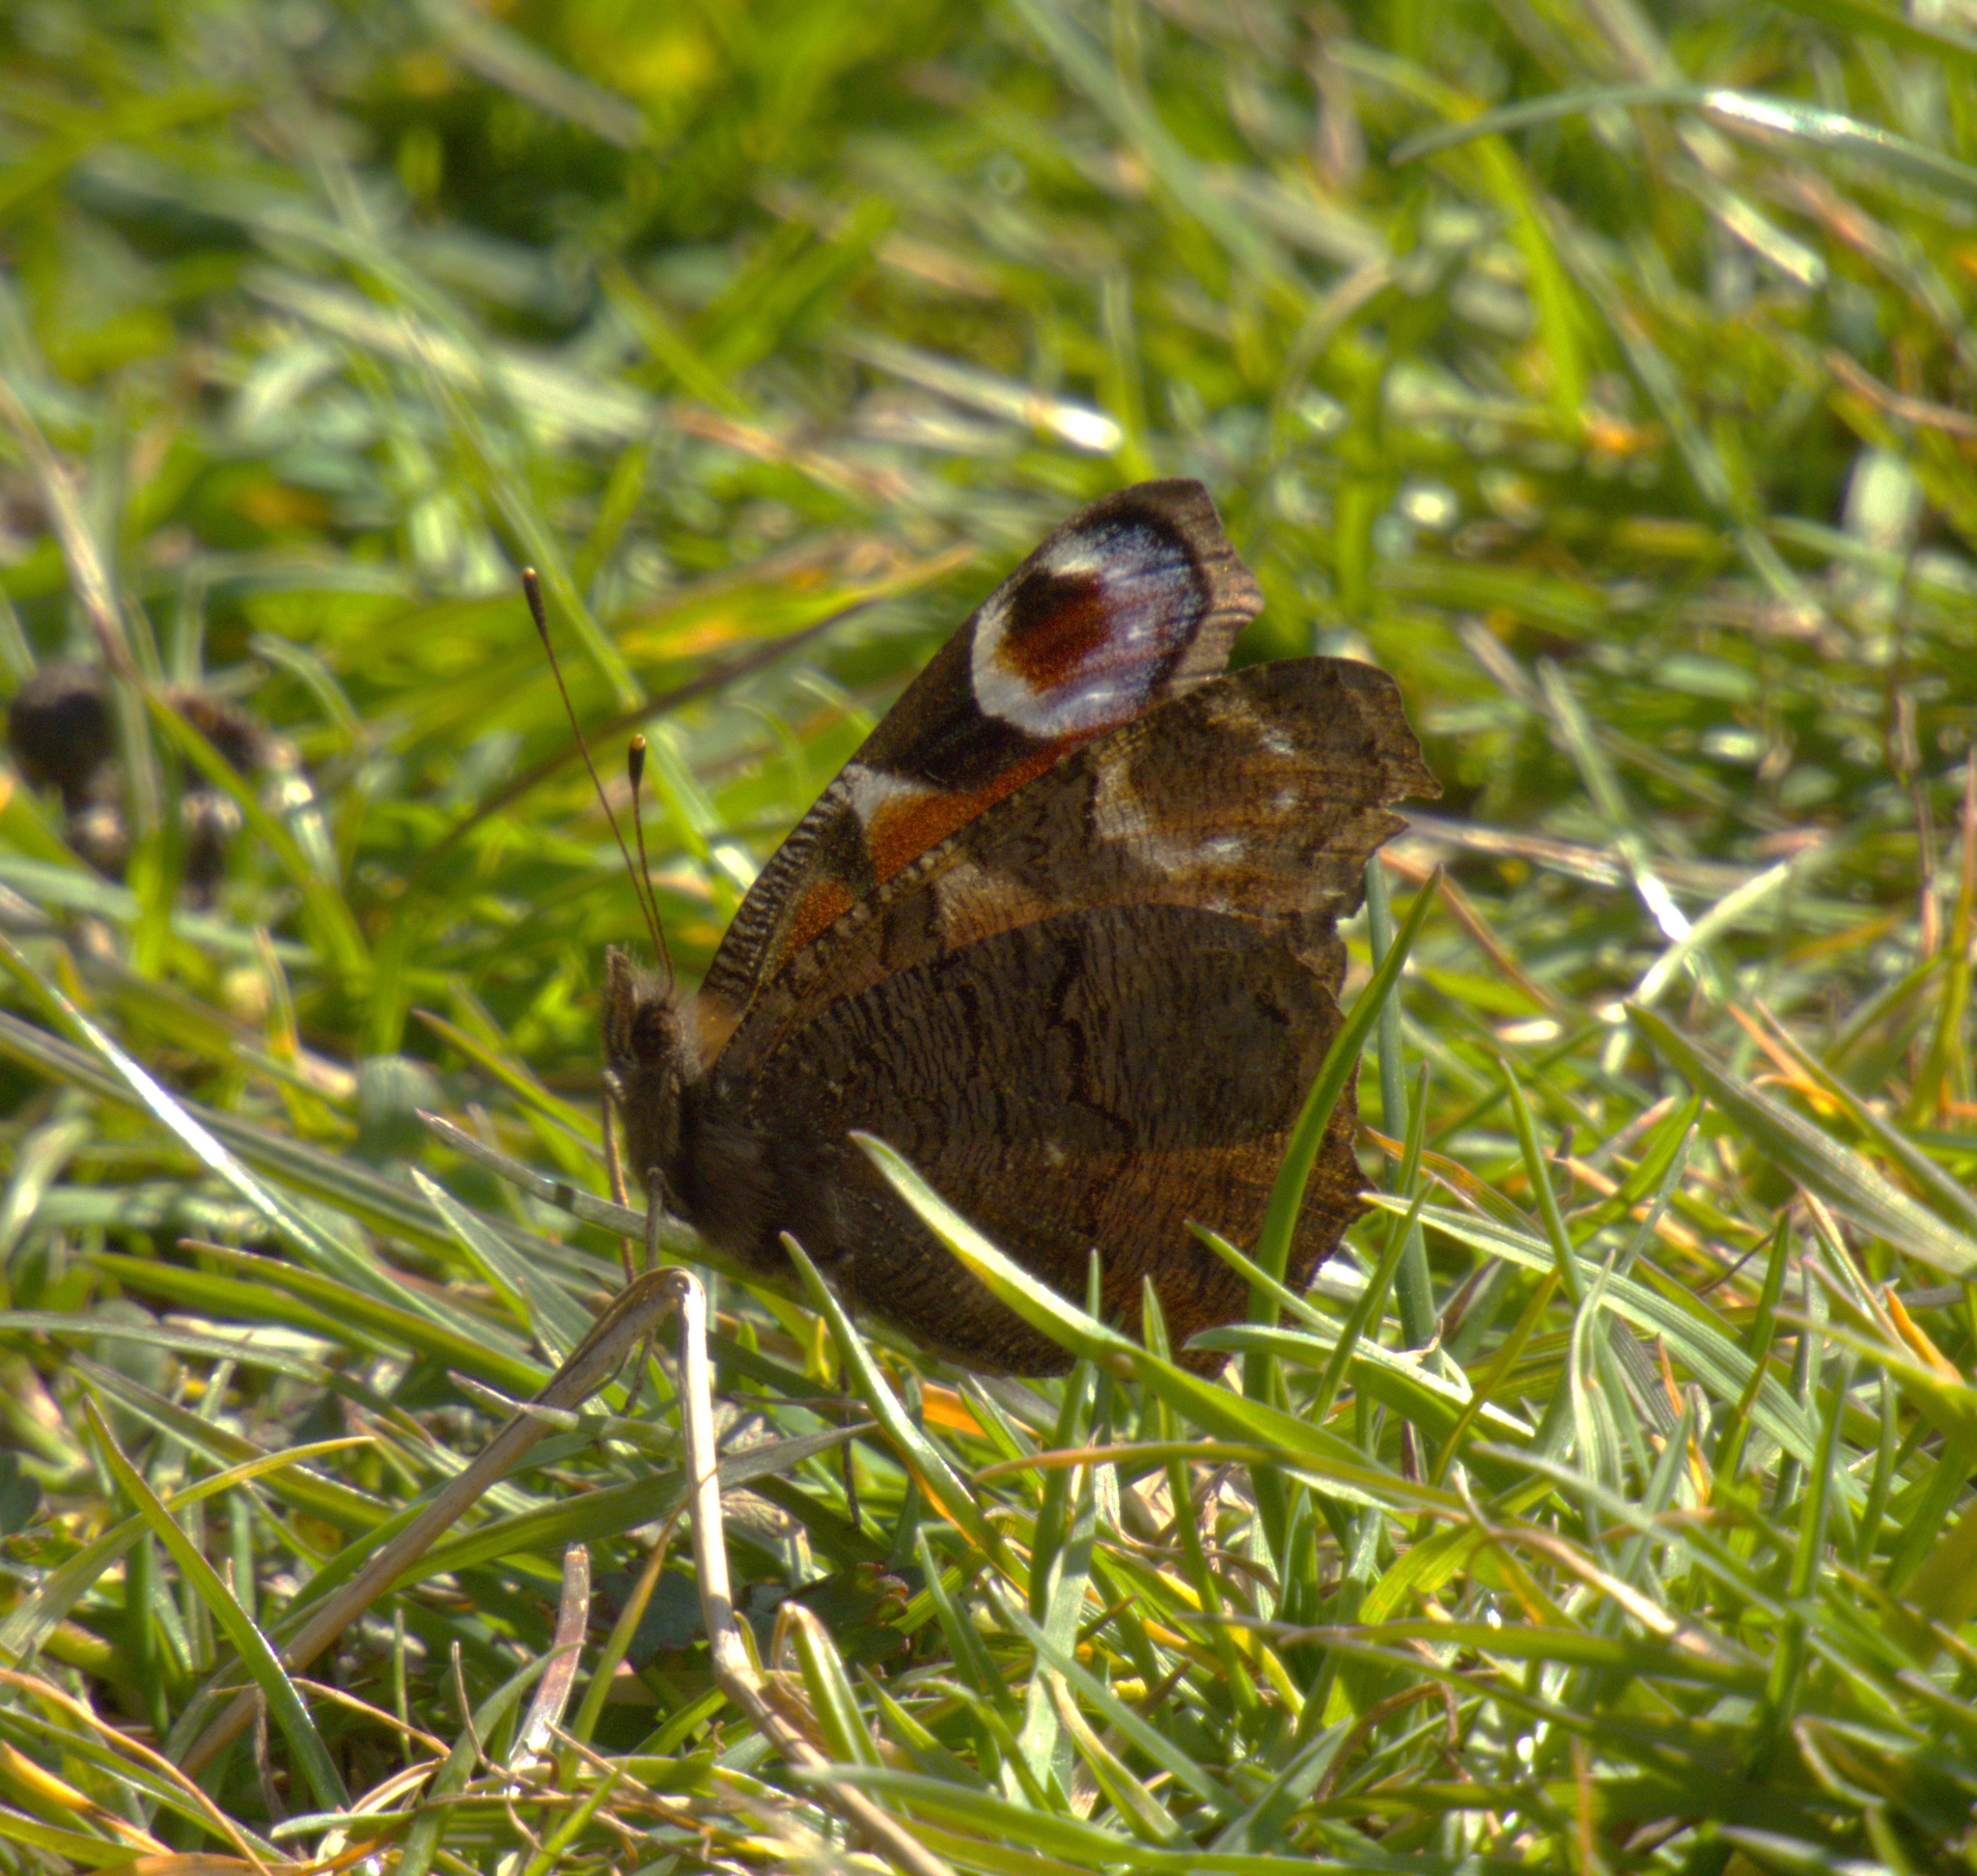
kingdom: Animalia
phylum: Arthropoda
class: Insecta
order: Lepidoptera
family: Nymphalidae
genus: Aglais
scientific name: Aglais io
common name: Peacock
